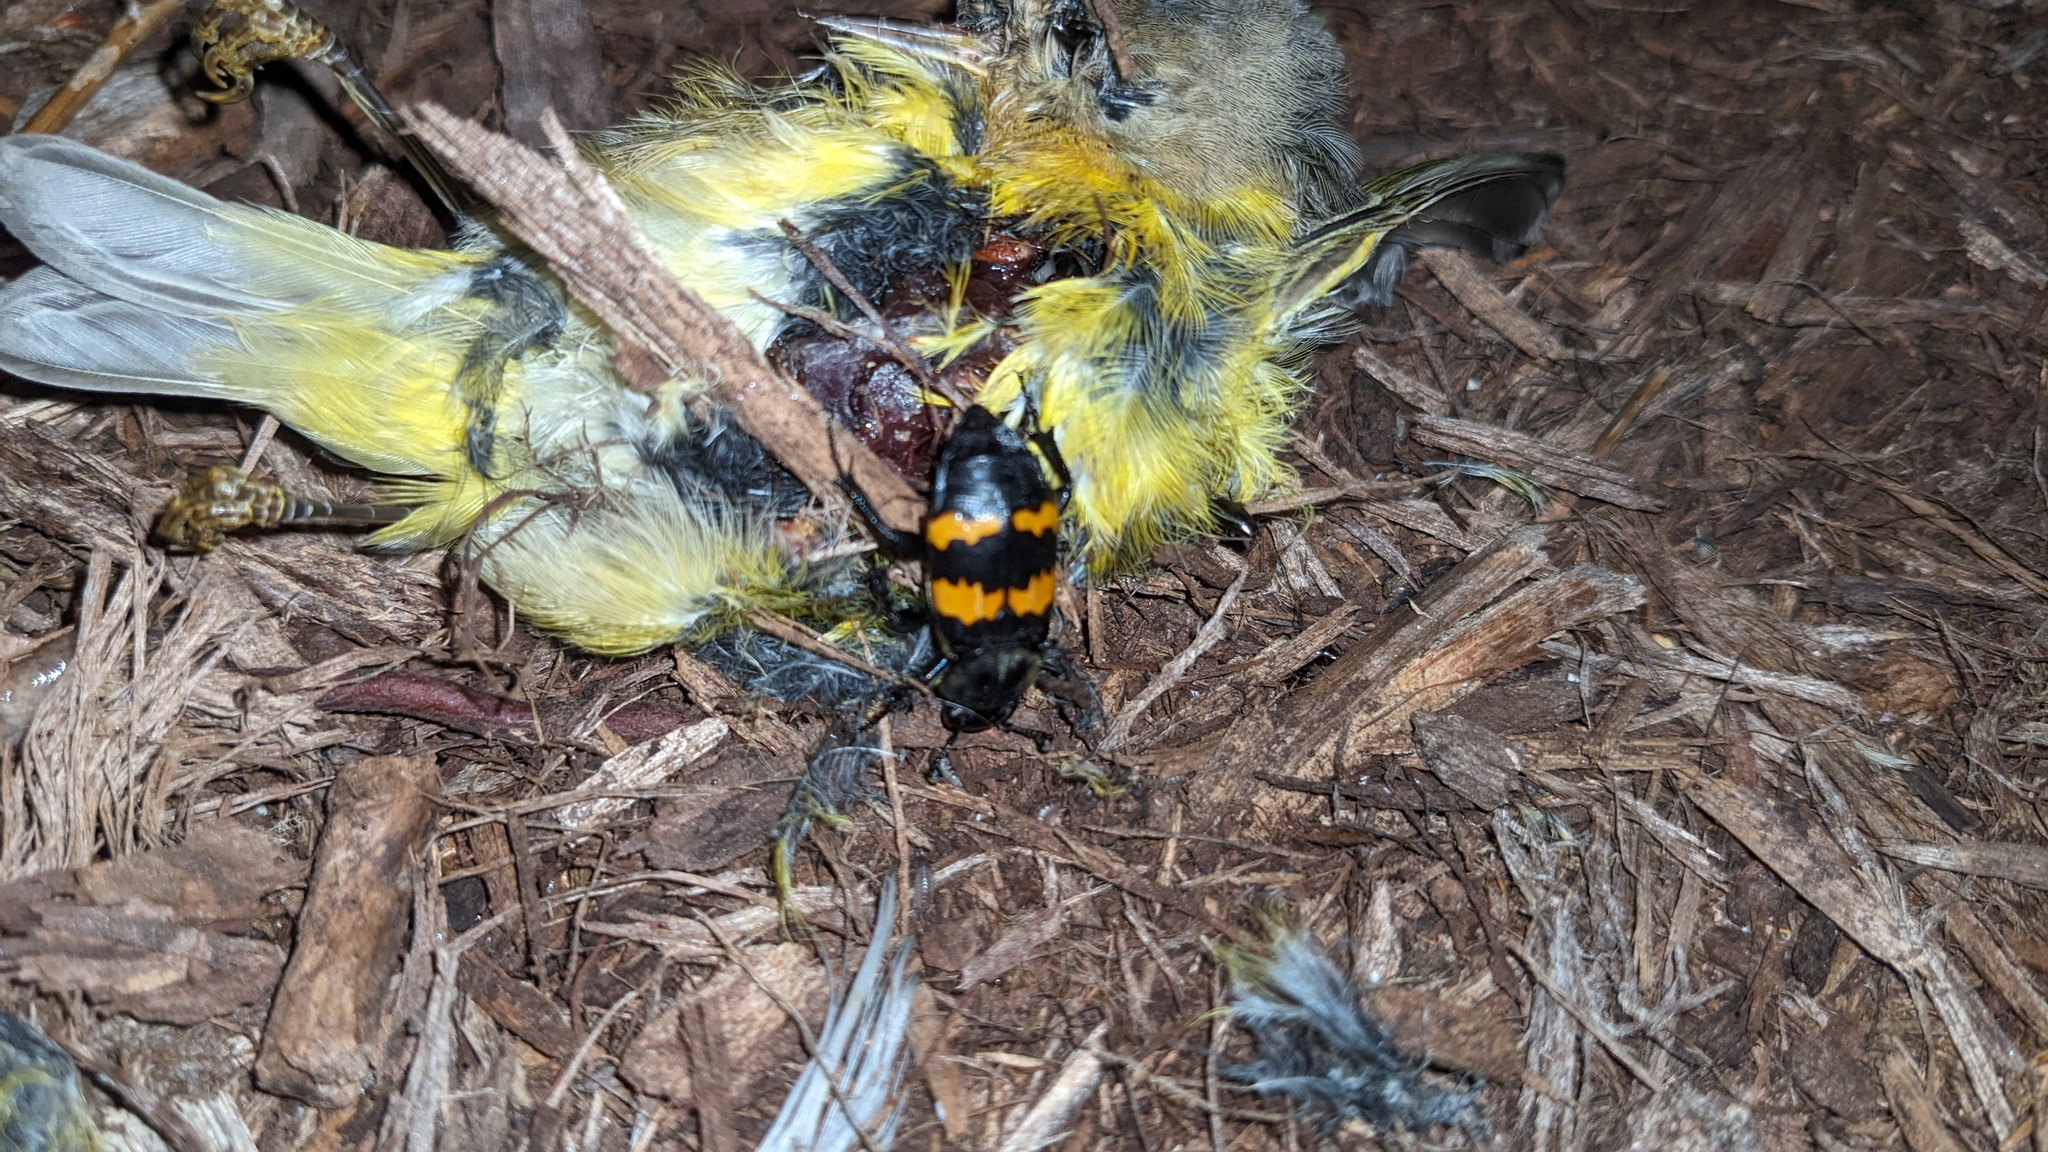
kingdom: Animalia
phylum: Arthropoda
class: Insecta
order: Coleoptera
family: Staphylinidae
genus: Nicrophorus
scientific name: Nicrophorus tomentosus
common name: Tomentose burying beetle
